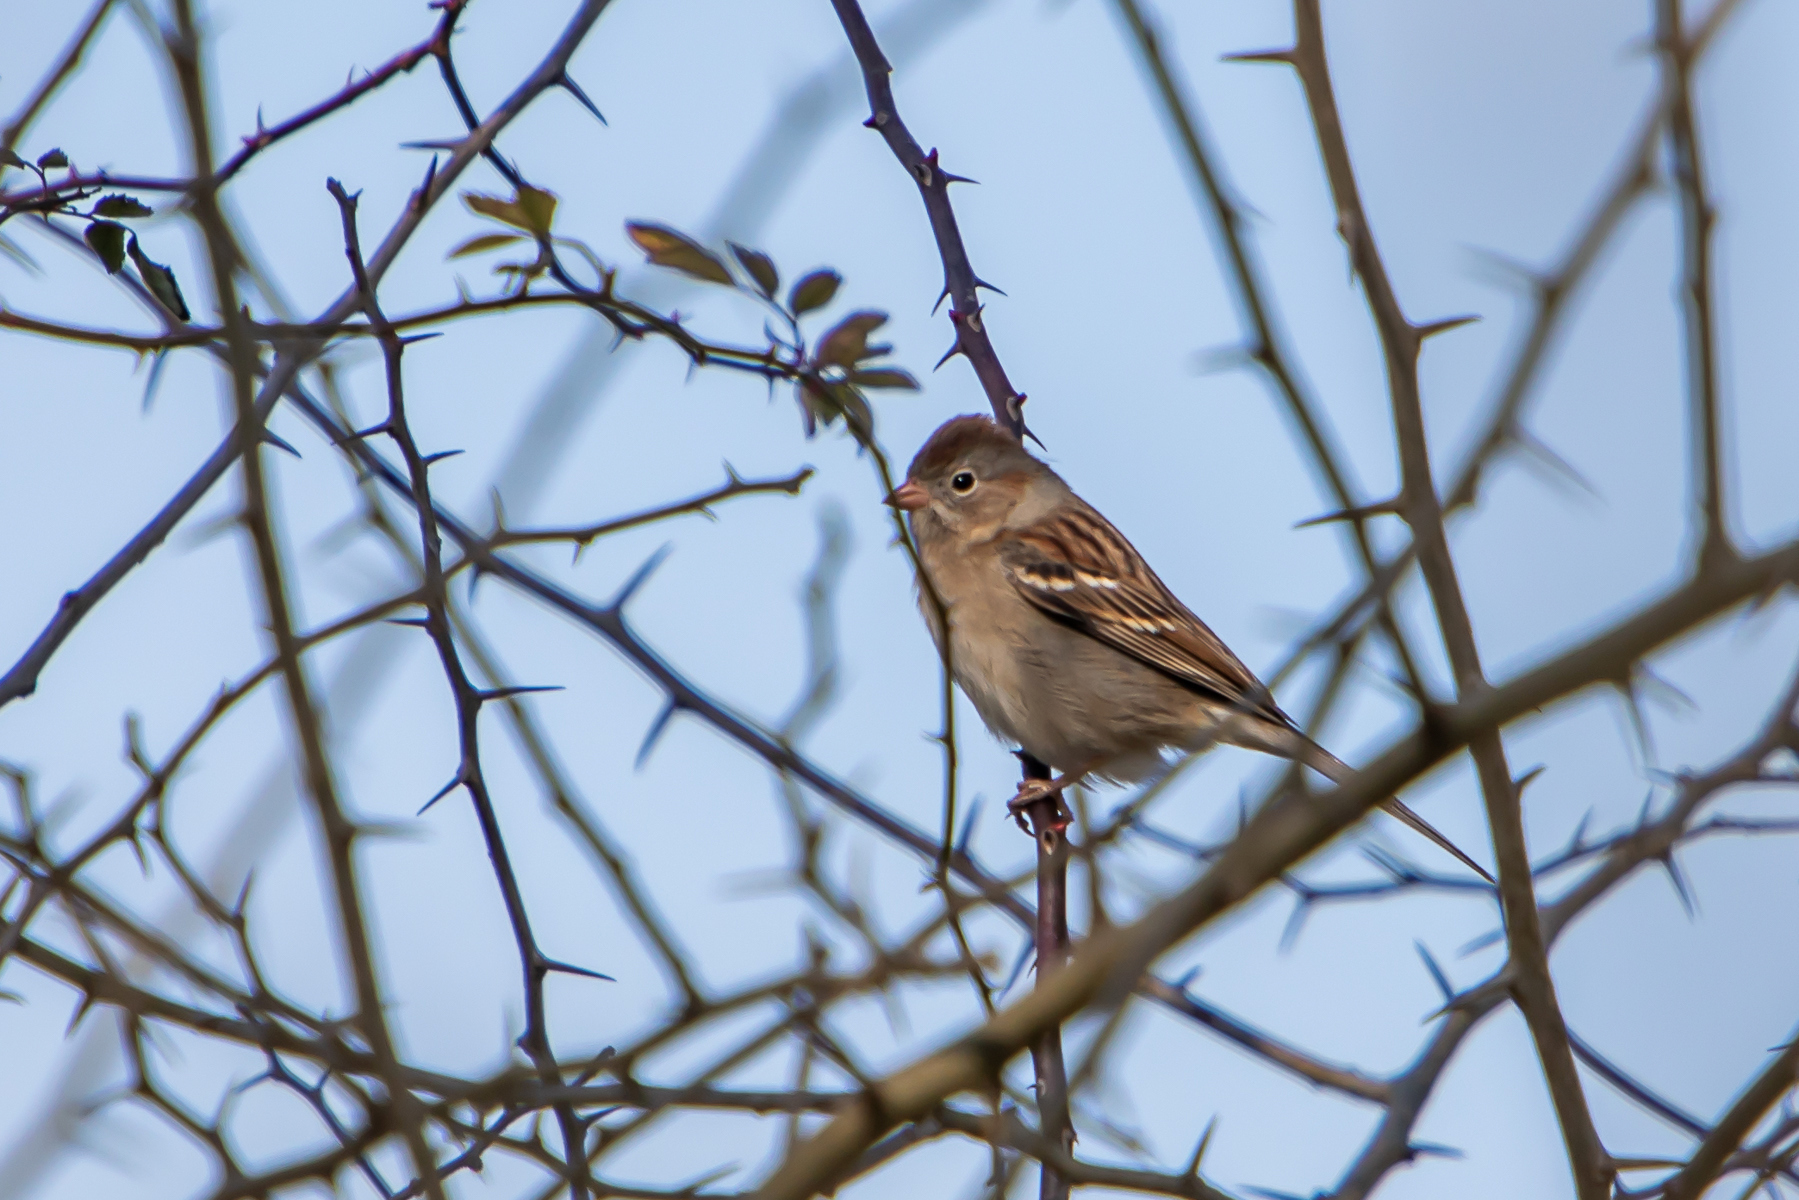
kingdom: Animalia
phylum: Chordata
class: Aves
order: Passeriformes
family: Passerellidae
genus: Spizella
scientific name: Spizella pusilla
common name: Field sparrow
